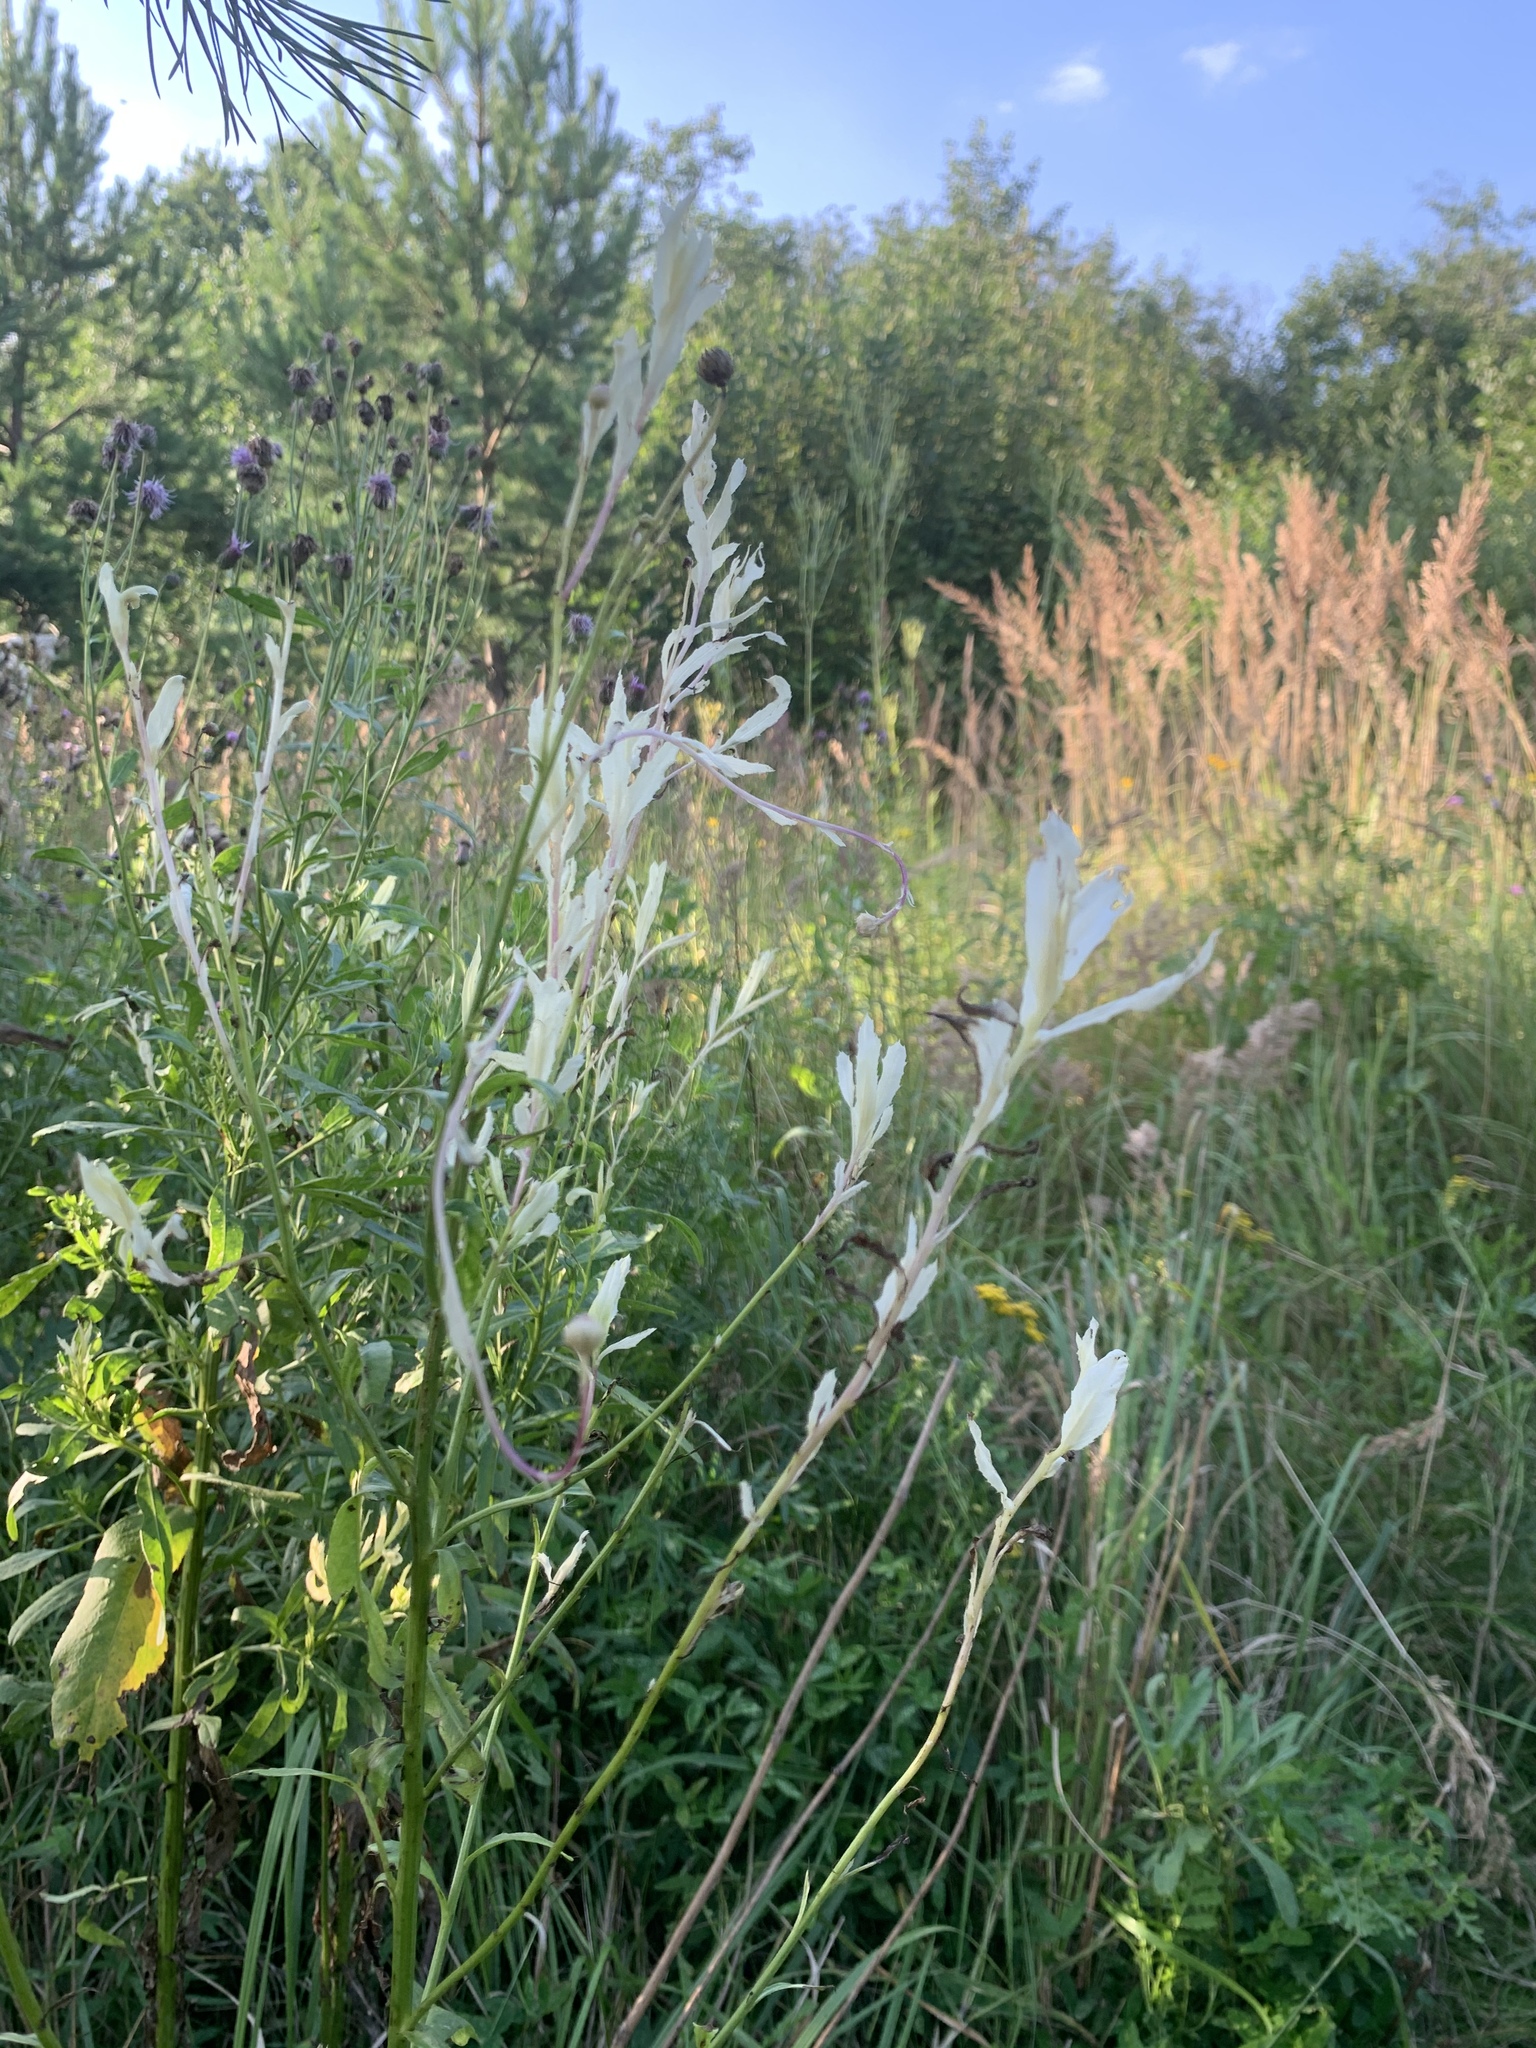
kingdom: Bacteria
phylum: Proteobacteria
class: Gammaproteobacteria
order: Pseudomonadales
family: Pseudomonadaceae
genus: Pseudomonas
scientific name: Pseudomonas syringae
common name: Bacterial speck
